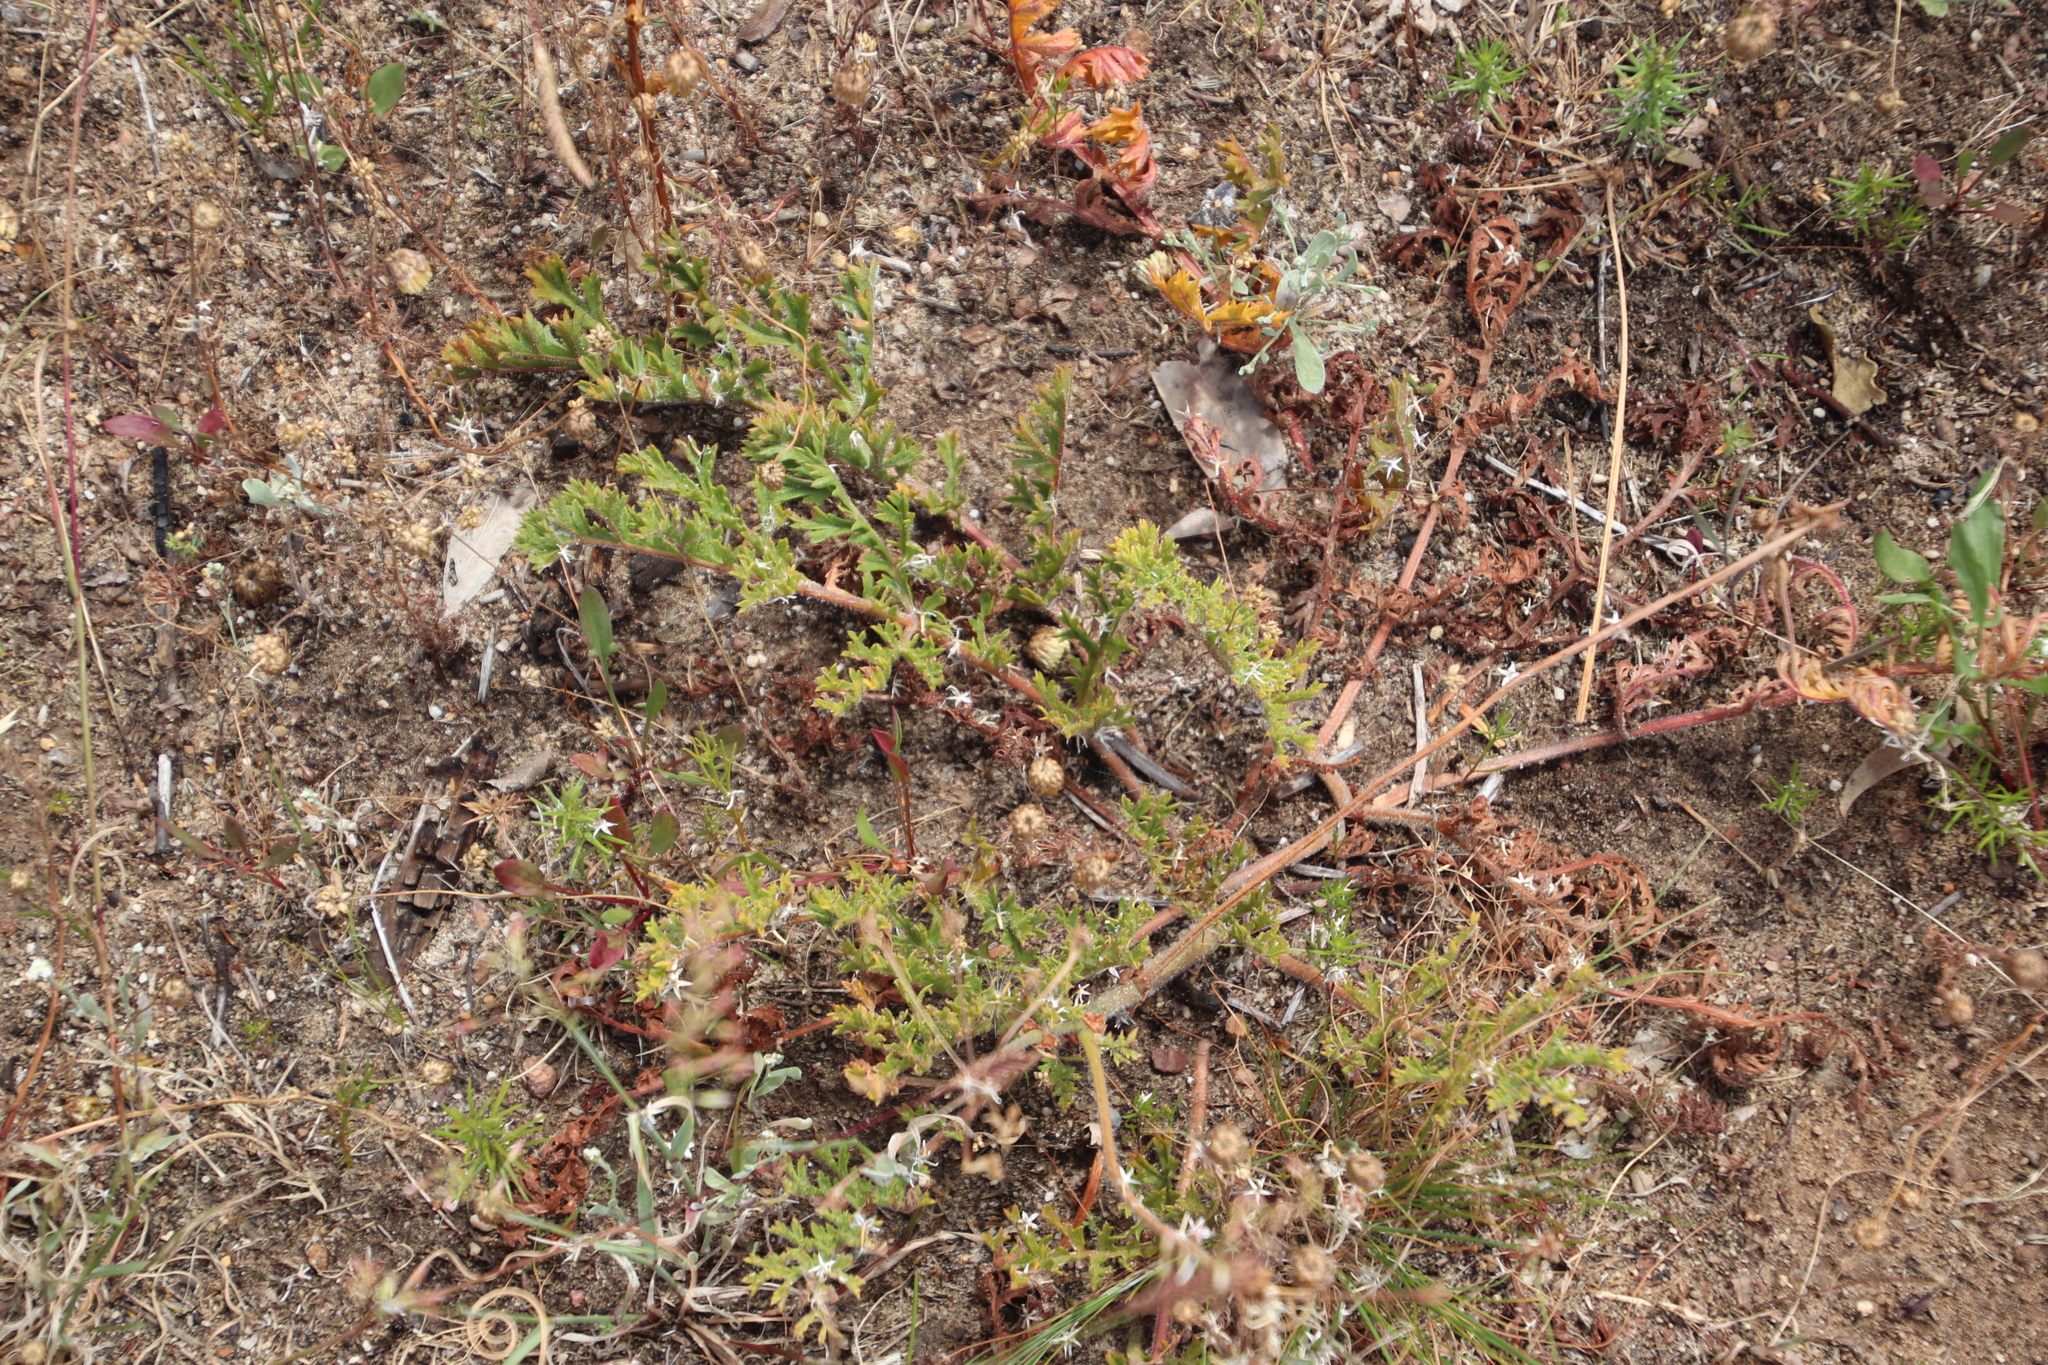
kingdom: Plantae
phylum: Tracheophyta
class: Magnoliopsida
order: Geraniales
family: Geraniaceae
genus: Pelargonium
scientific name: Pelargonium triste
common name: Night-scent pelargonium
